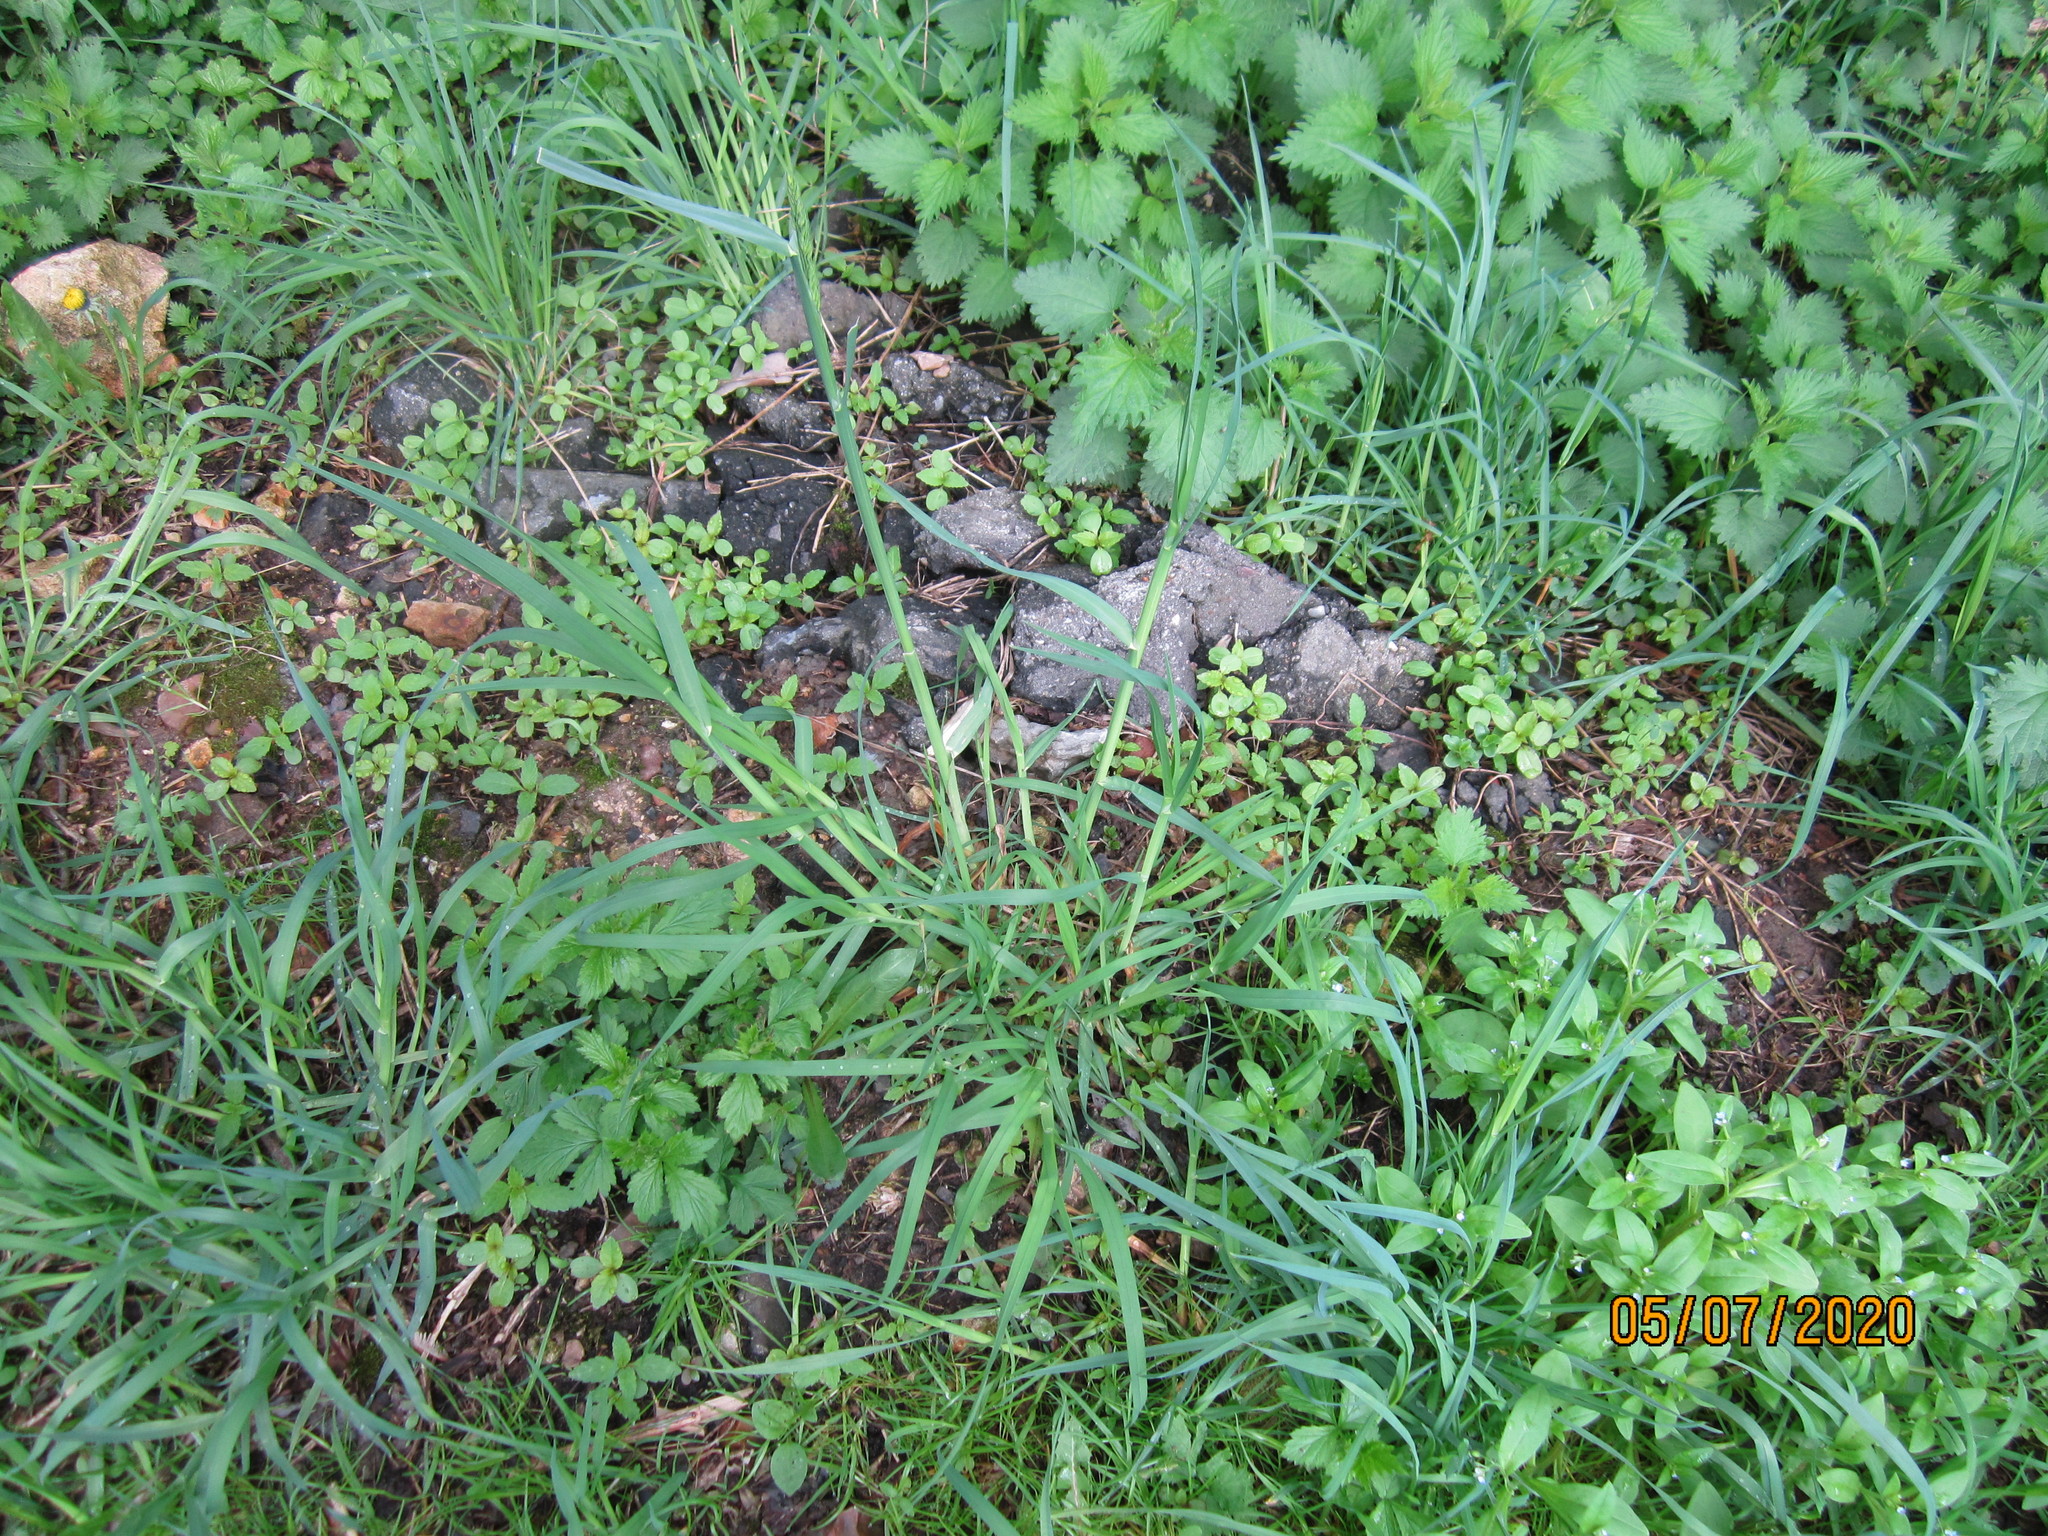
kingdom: Plantae
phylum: Tracheophyta
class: Liliopsida
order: Poales
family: Poaceae
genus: Dactylis
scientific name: Dactylis glomerata
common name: Orchardgrass
